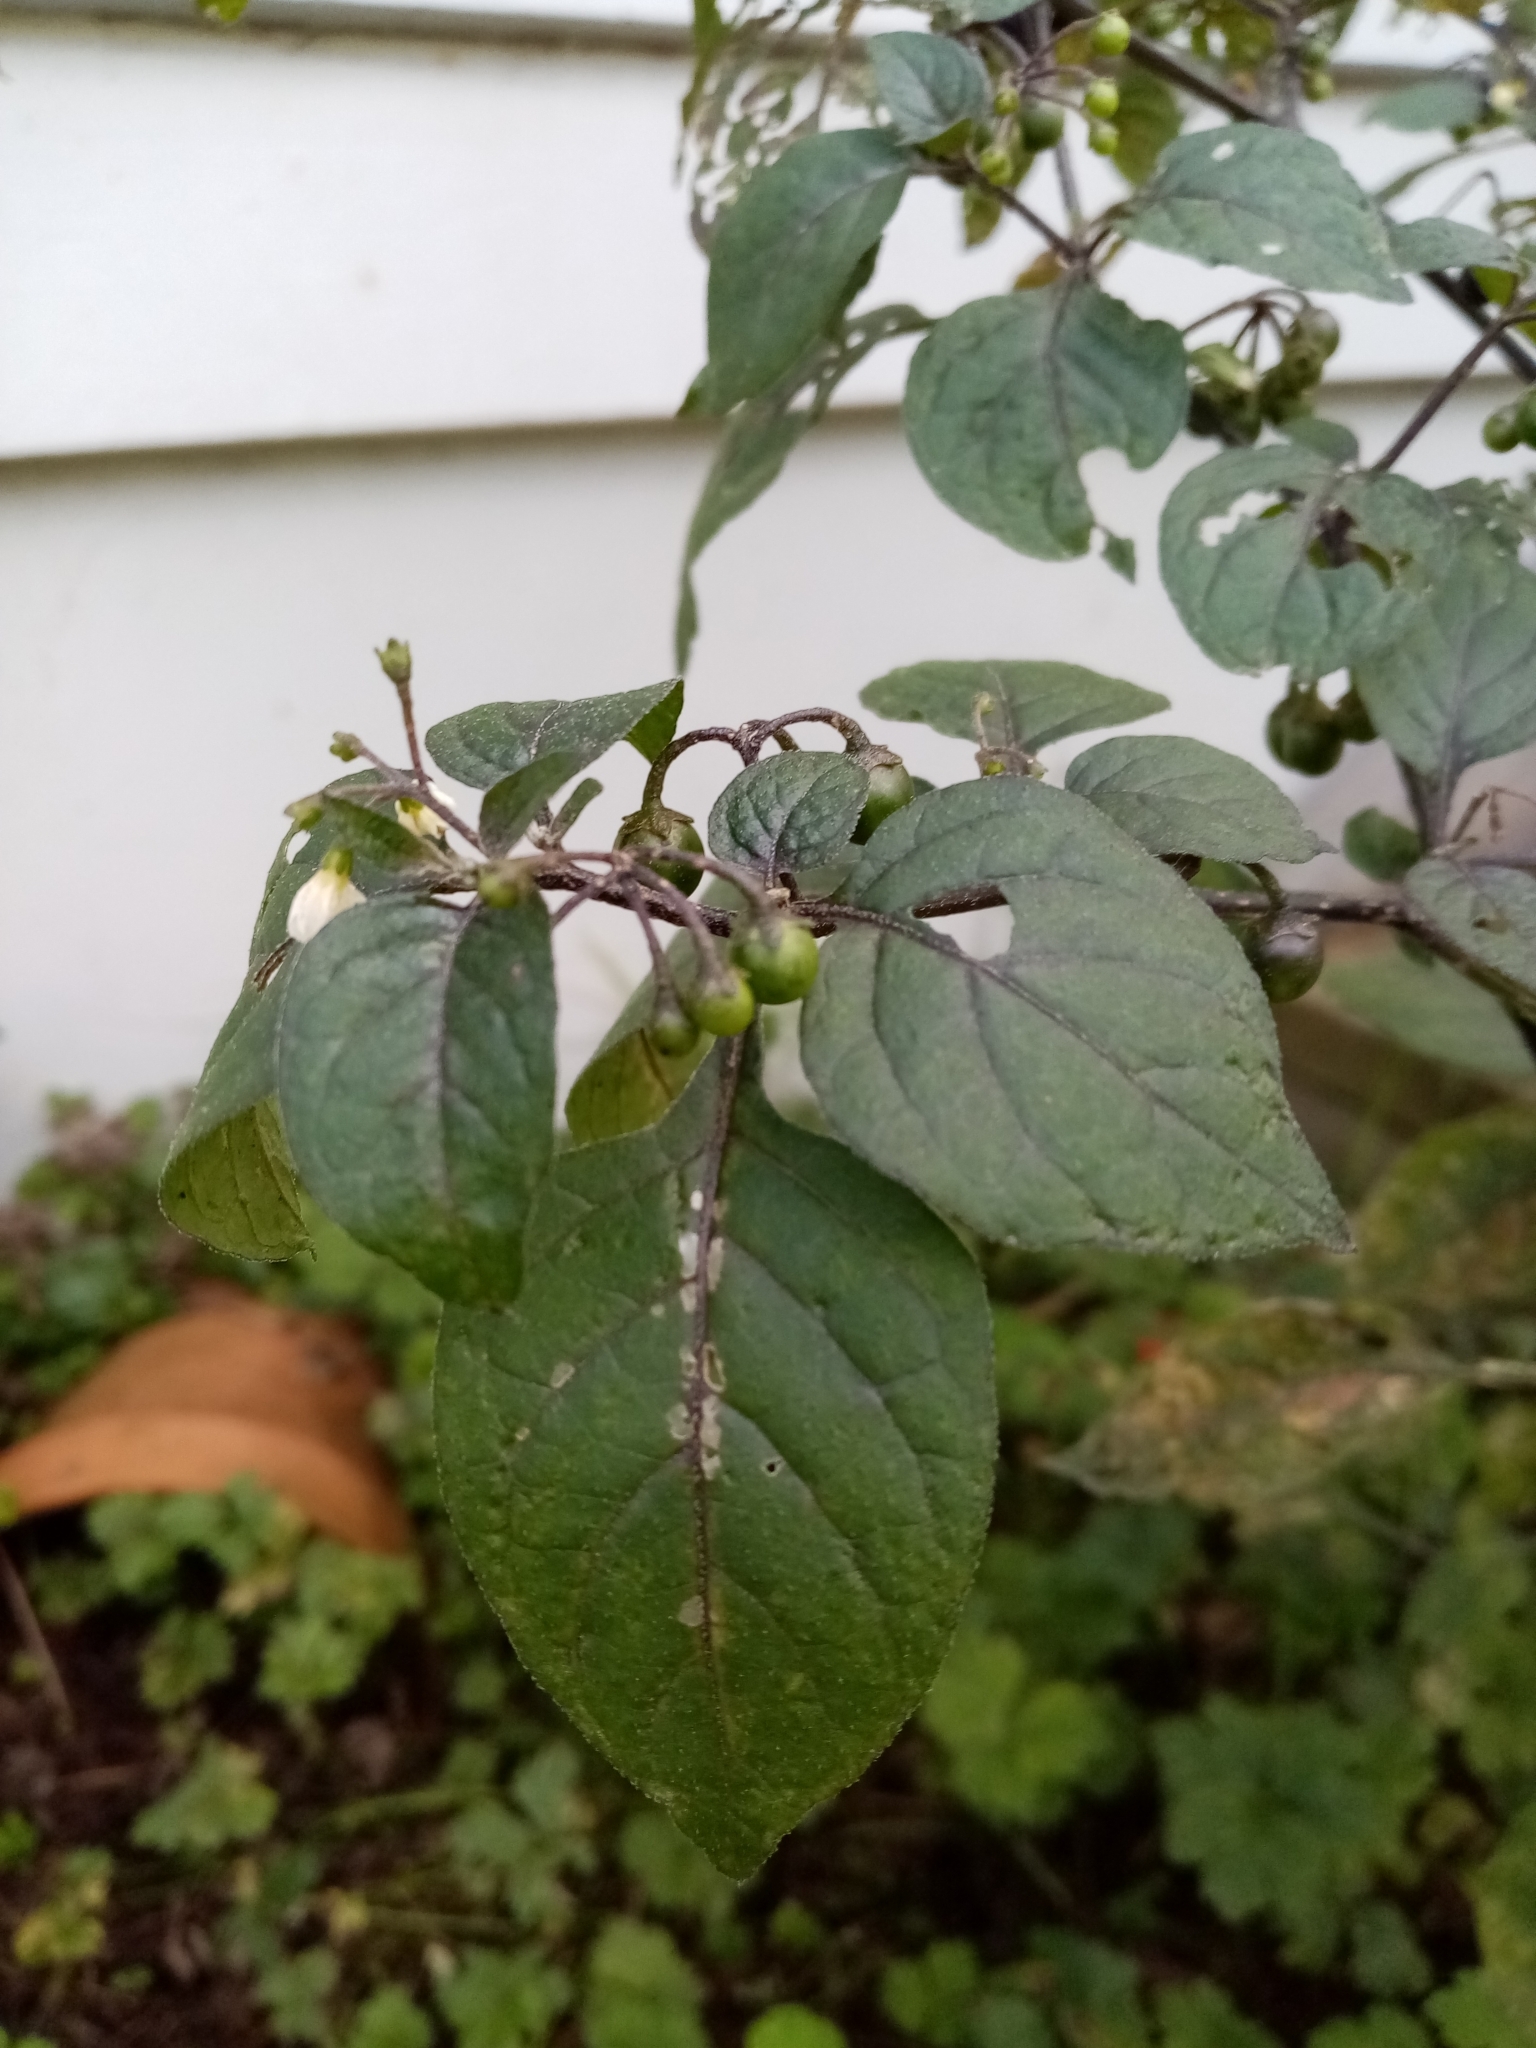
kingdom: Plantae
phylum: Tracheophyta
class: Magnoliopsida
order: Solanales
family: Solanaceae
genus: Solanum
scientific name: Solanum nigrum
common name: Black nightshade
